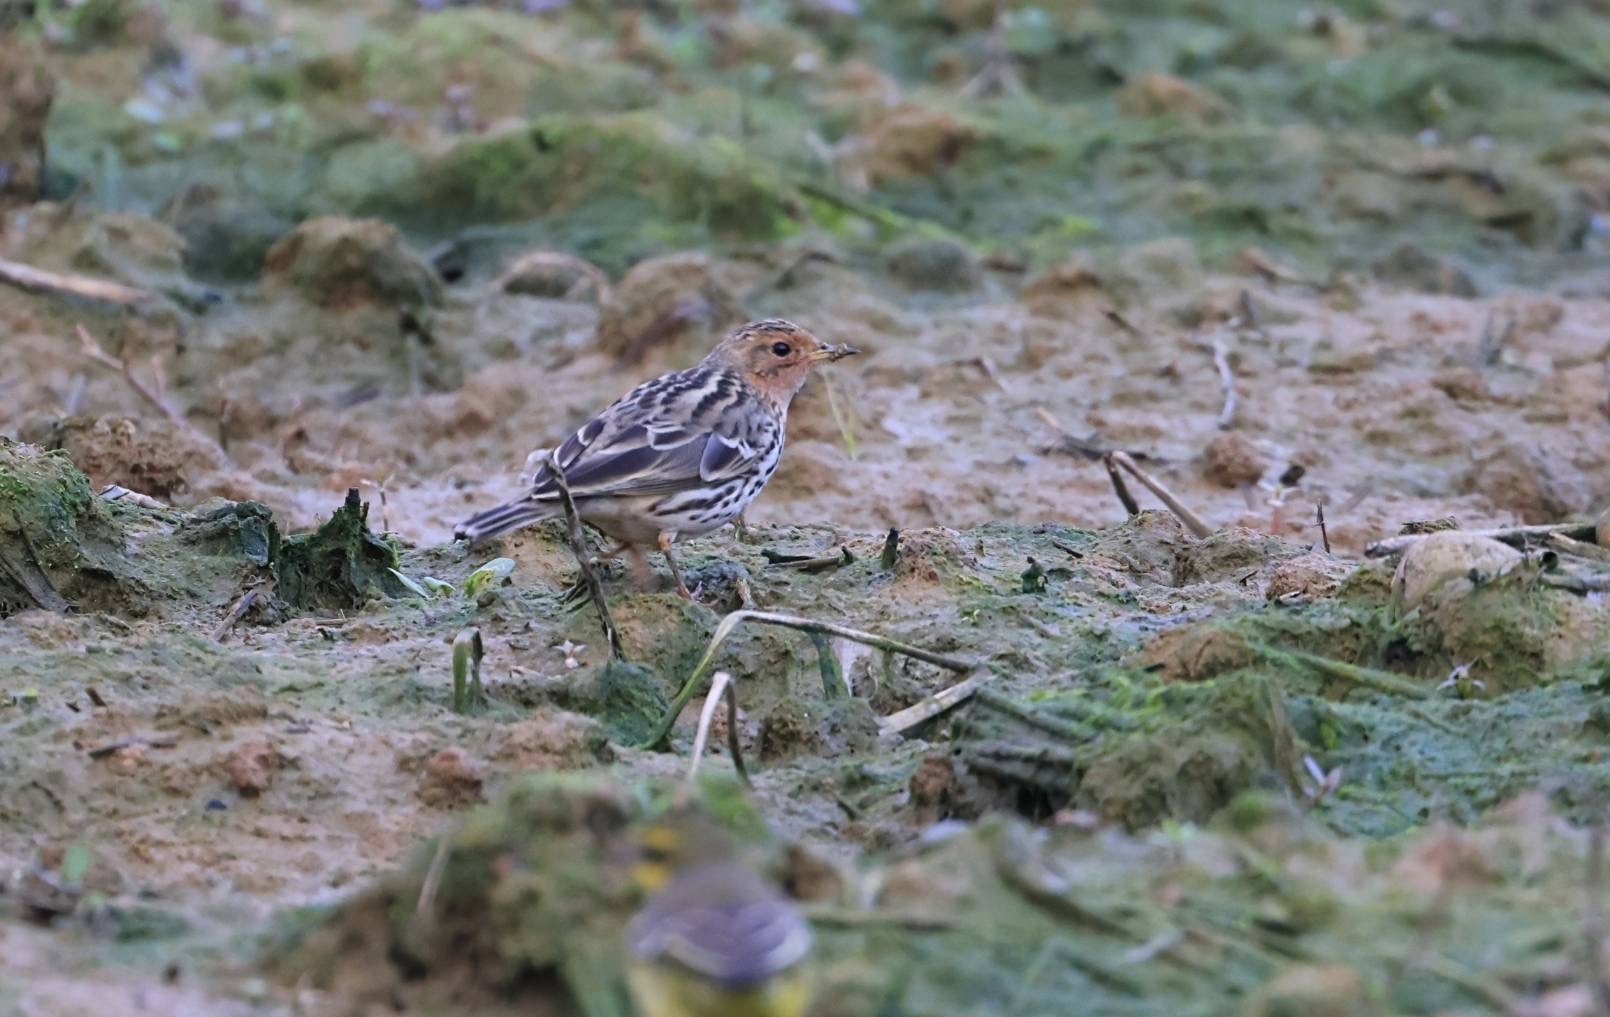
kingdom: Animalia
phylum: Chordata
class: Aves
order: Passeriformes
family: Motacillidae
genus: Anthus
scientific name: Anthus cervinus
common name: Red-throated pipit
